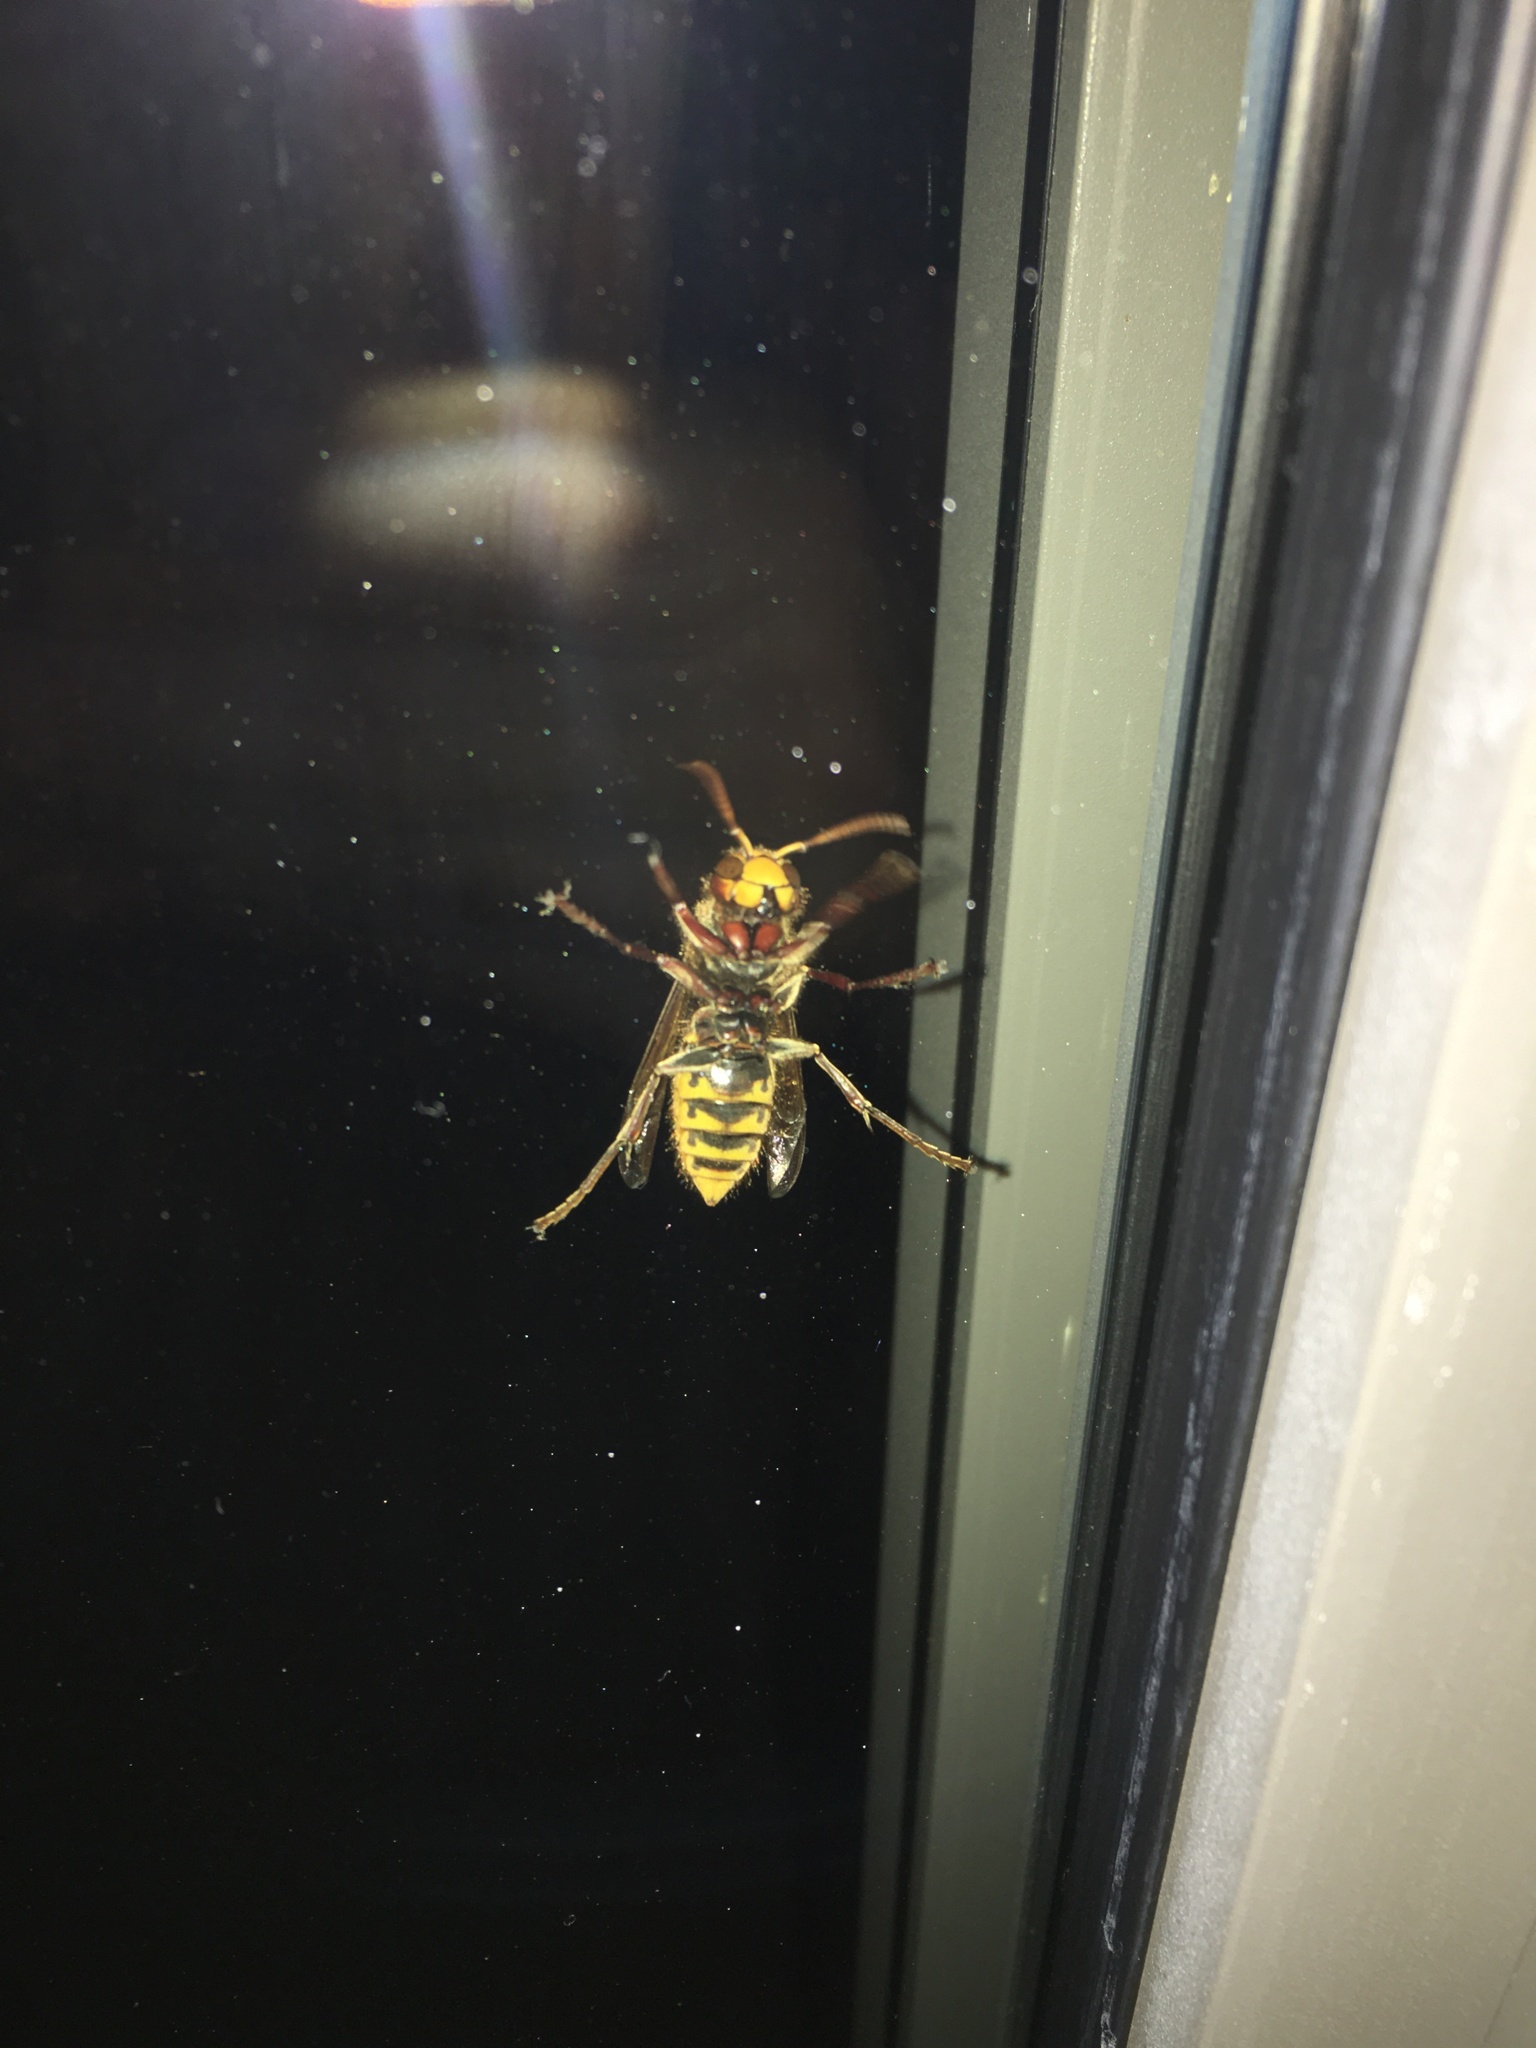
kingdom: Animalia
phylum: Arthropoda
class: Insecta
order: Hymenoptera
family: Vespidae
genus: Vespa
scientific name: Vespa crabro
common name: Hornet
